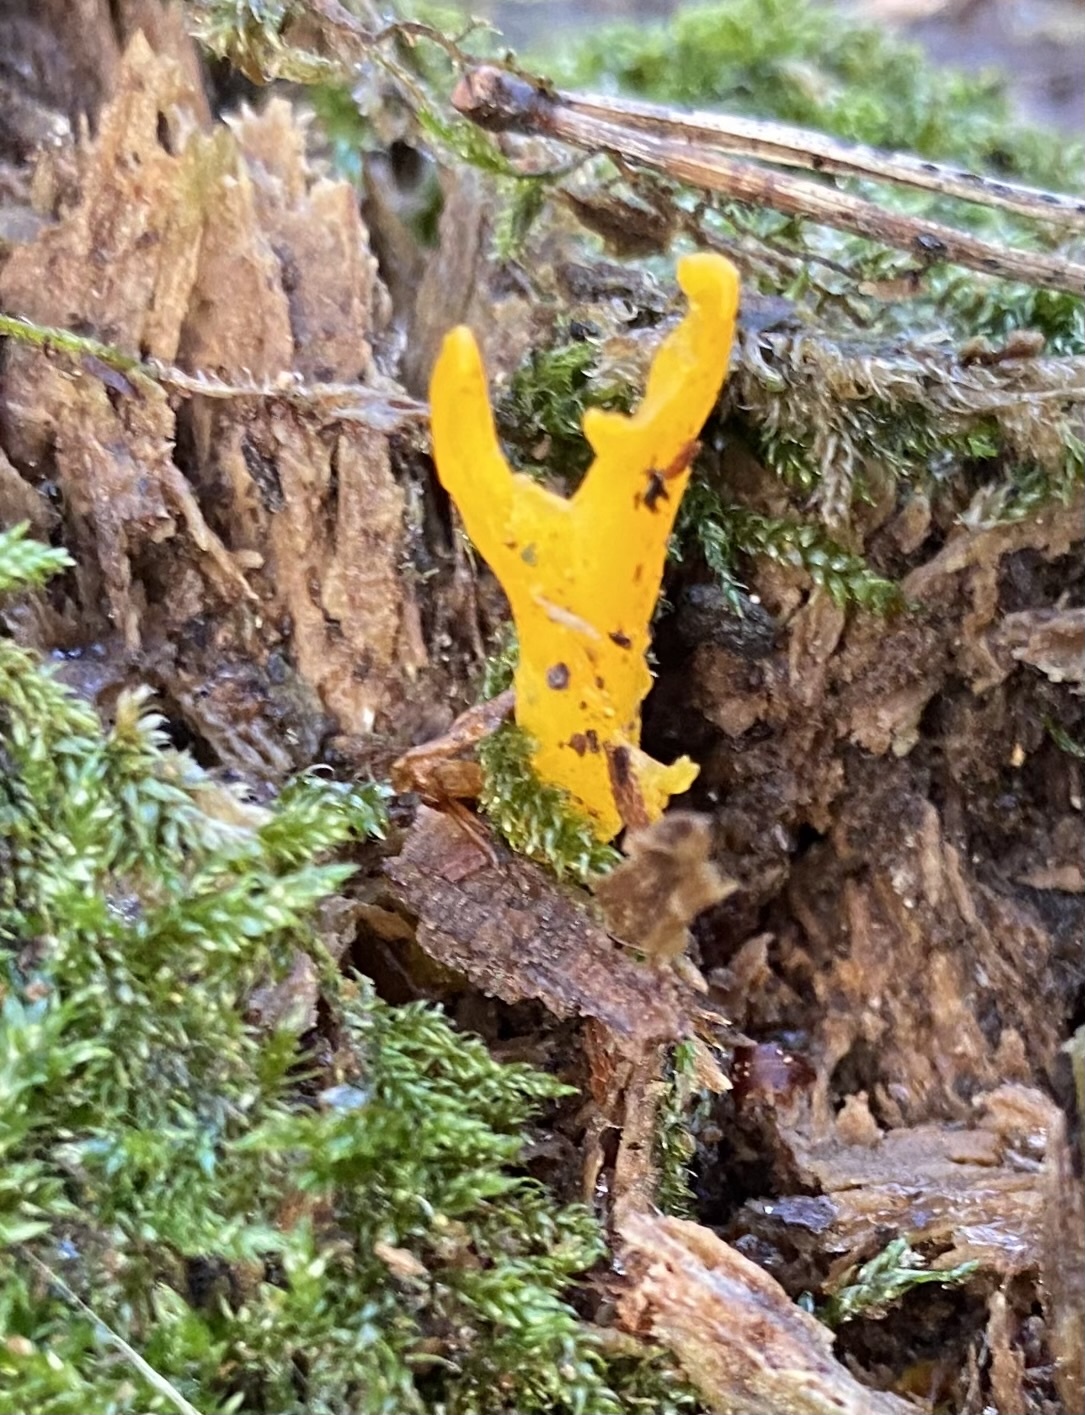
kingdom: Fungi
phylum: Basidiomycota
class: Dacrymycetes
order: Dacrymycetales
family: Dacrymycetaceae
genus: Calocera
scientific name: Calocera viscosa
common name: Yellow stagshorn
